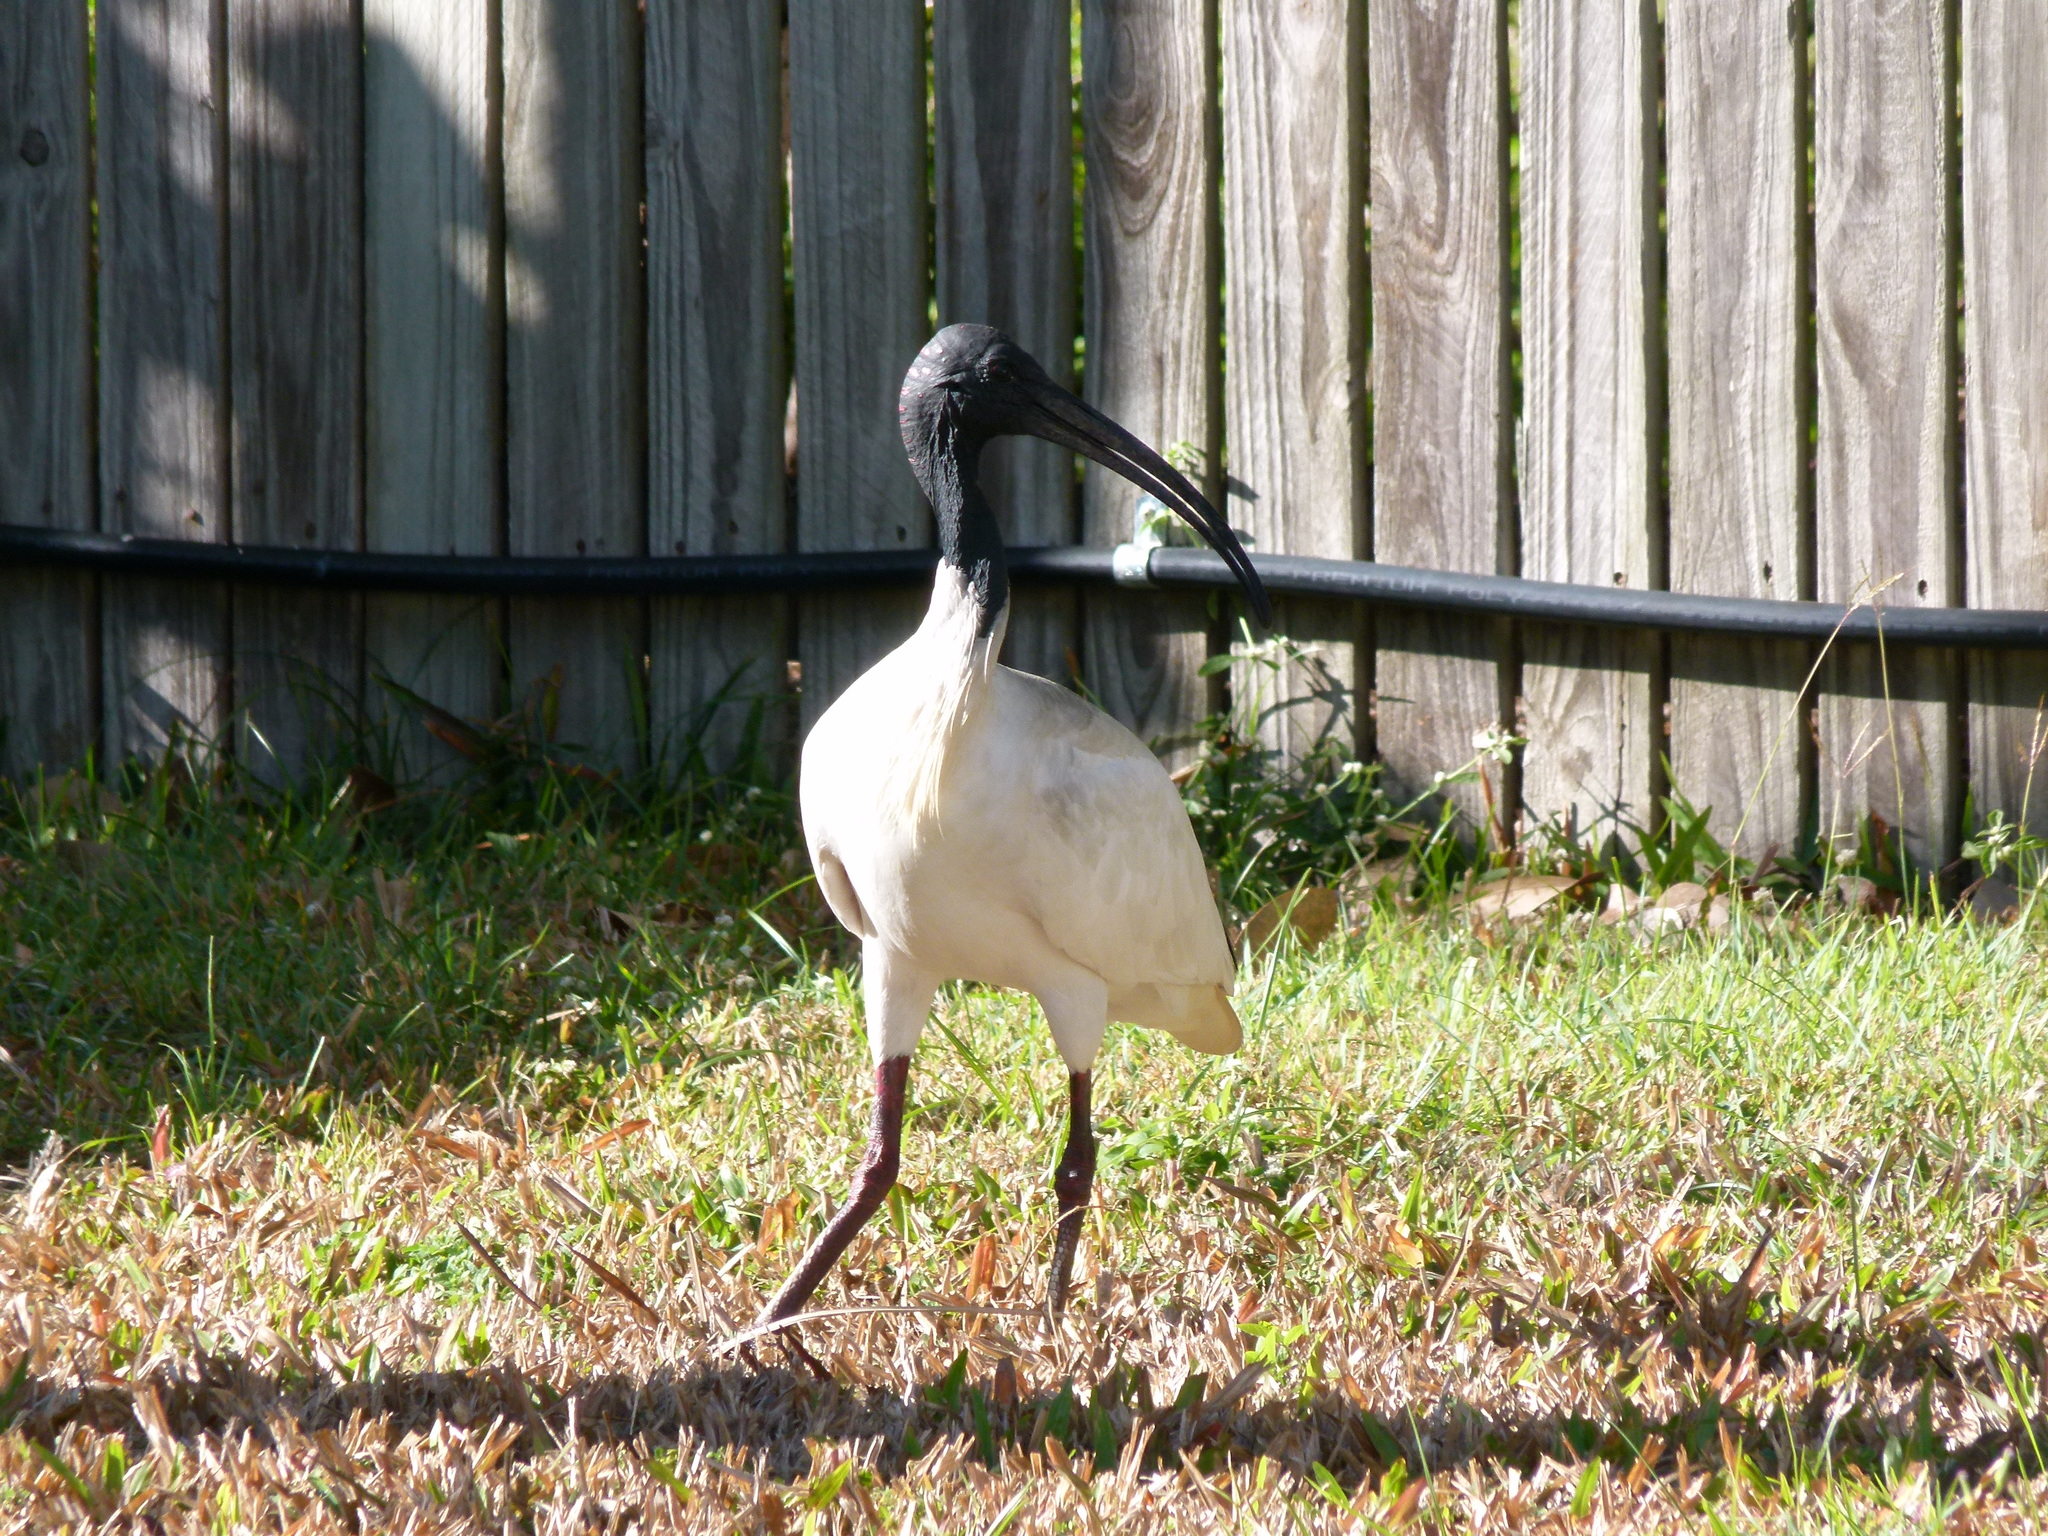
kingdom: Animalia
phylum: Chordata
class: Aves
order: Pelecaniformes
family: Threskiornithidae
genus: Threskiornis
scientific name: Threskiornis molucca
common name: Australian white ibis
